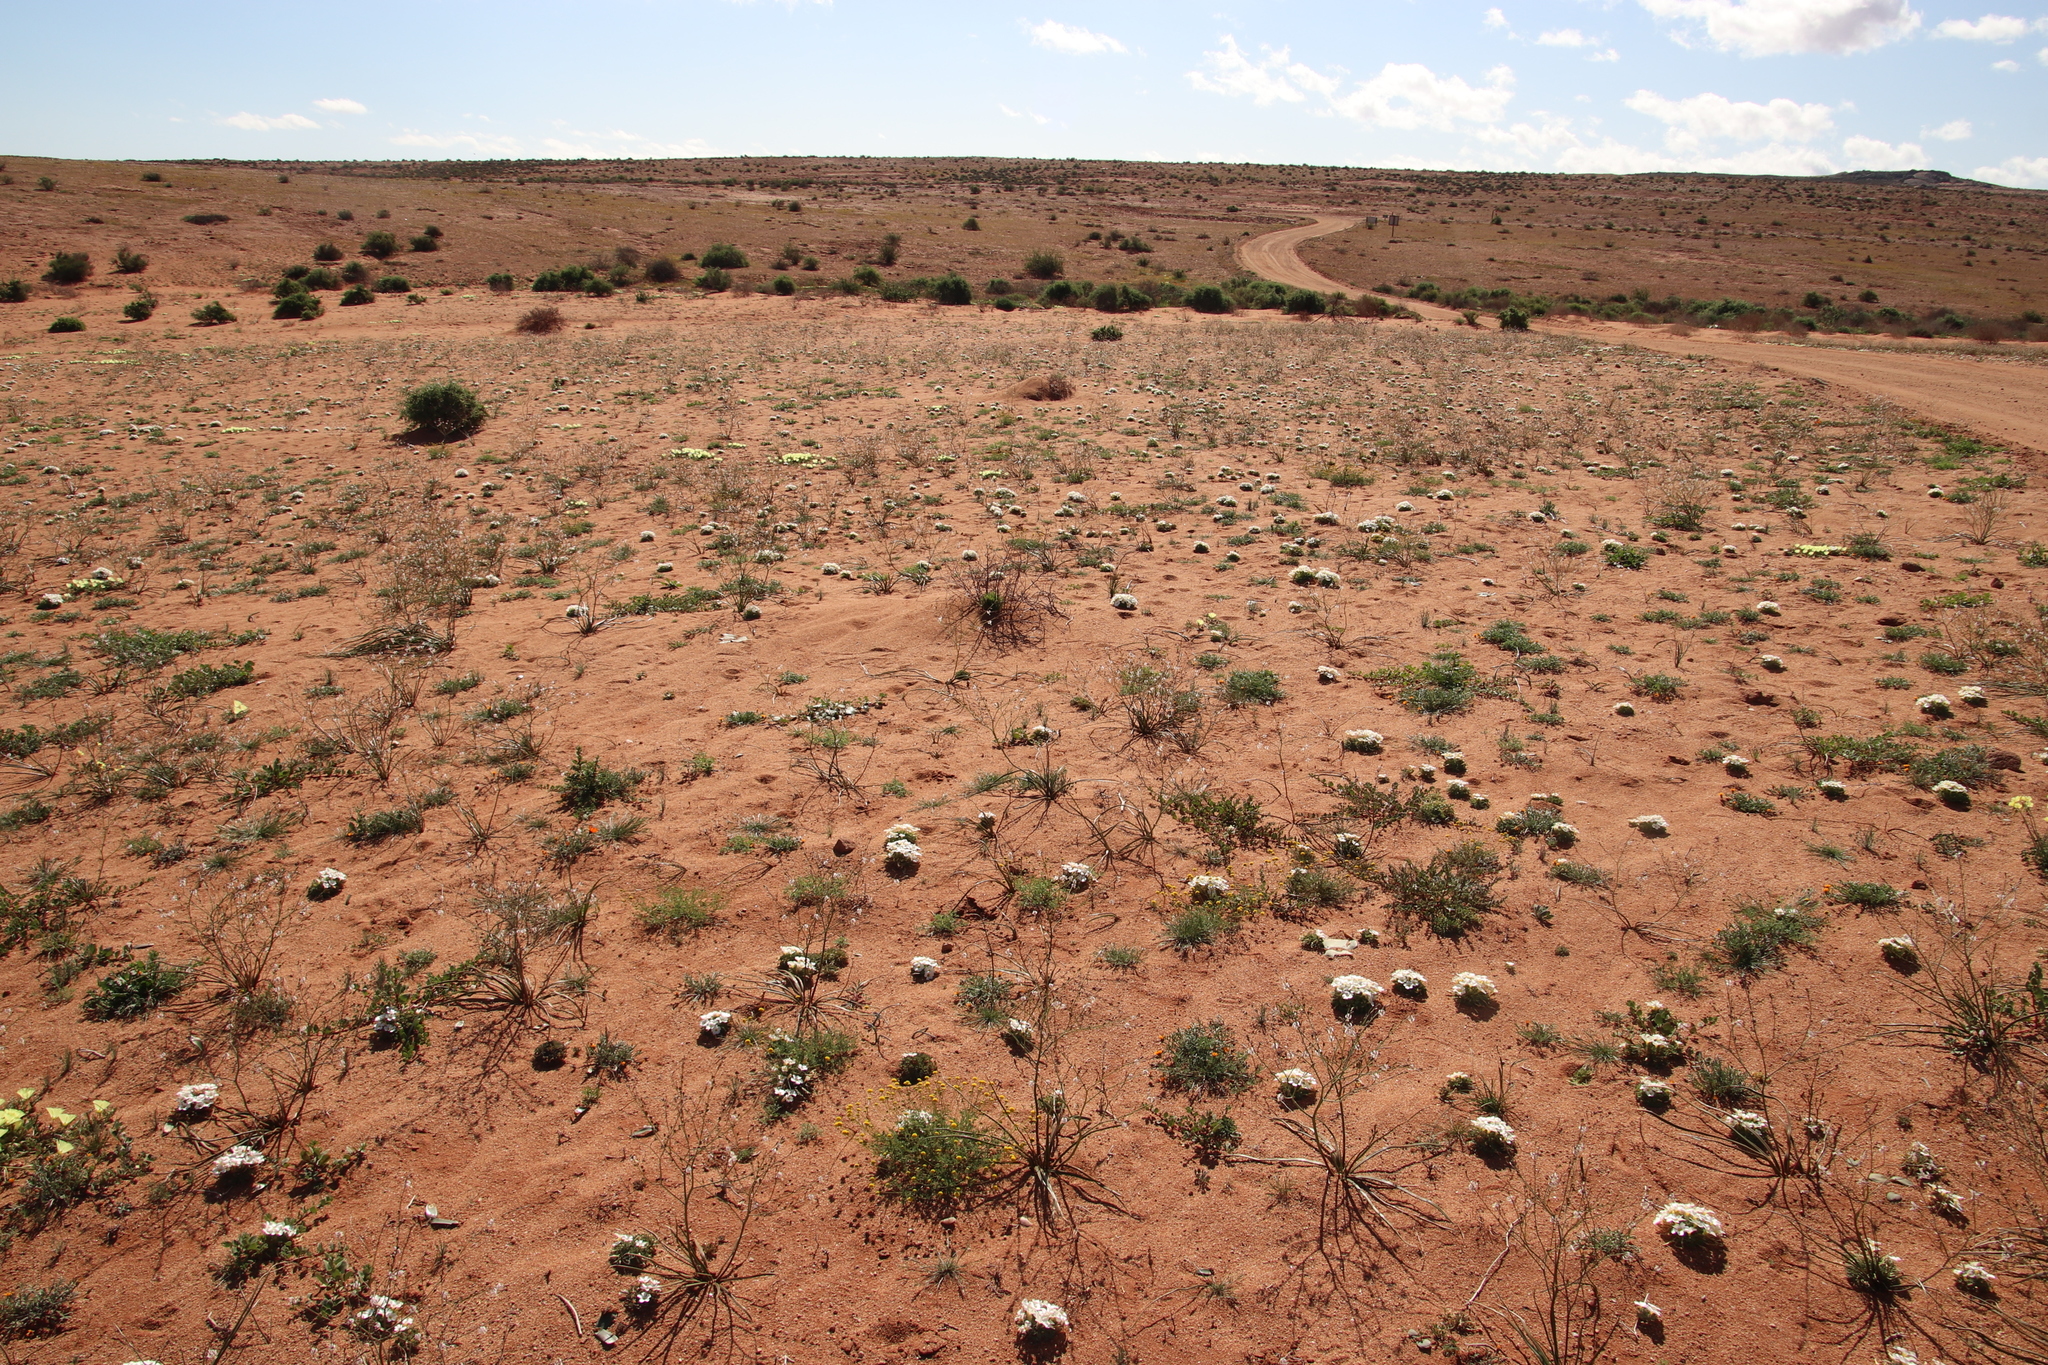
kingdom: Plantae
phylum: Tracheophyta
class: Magnoliopsida
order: Oxalidales
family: Oxalidaceae
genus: Oxalis
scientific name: Oxalis annae
